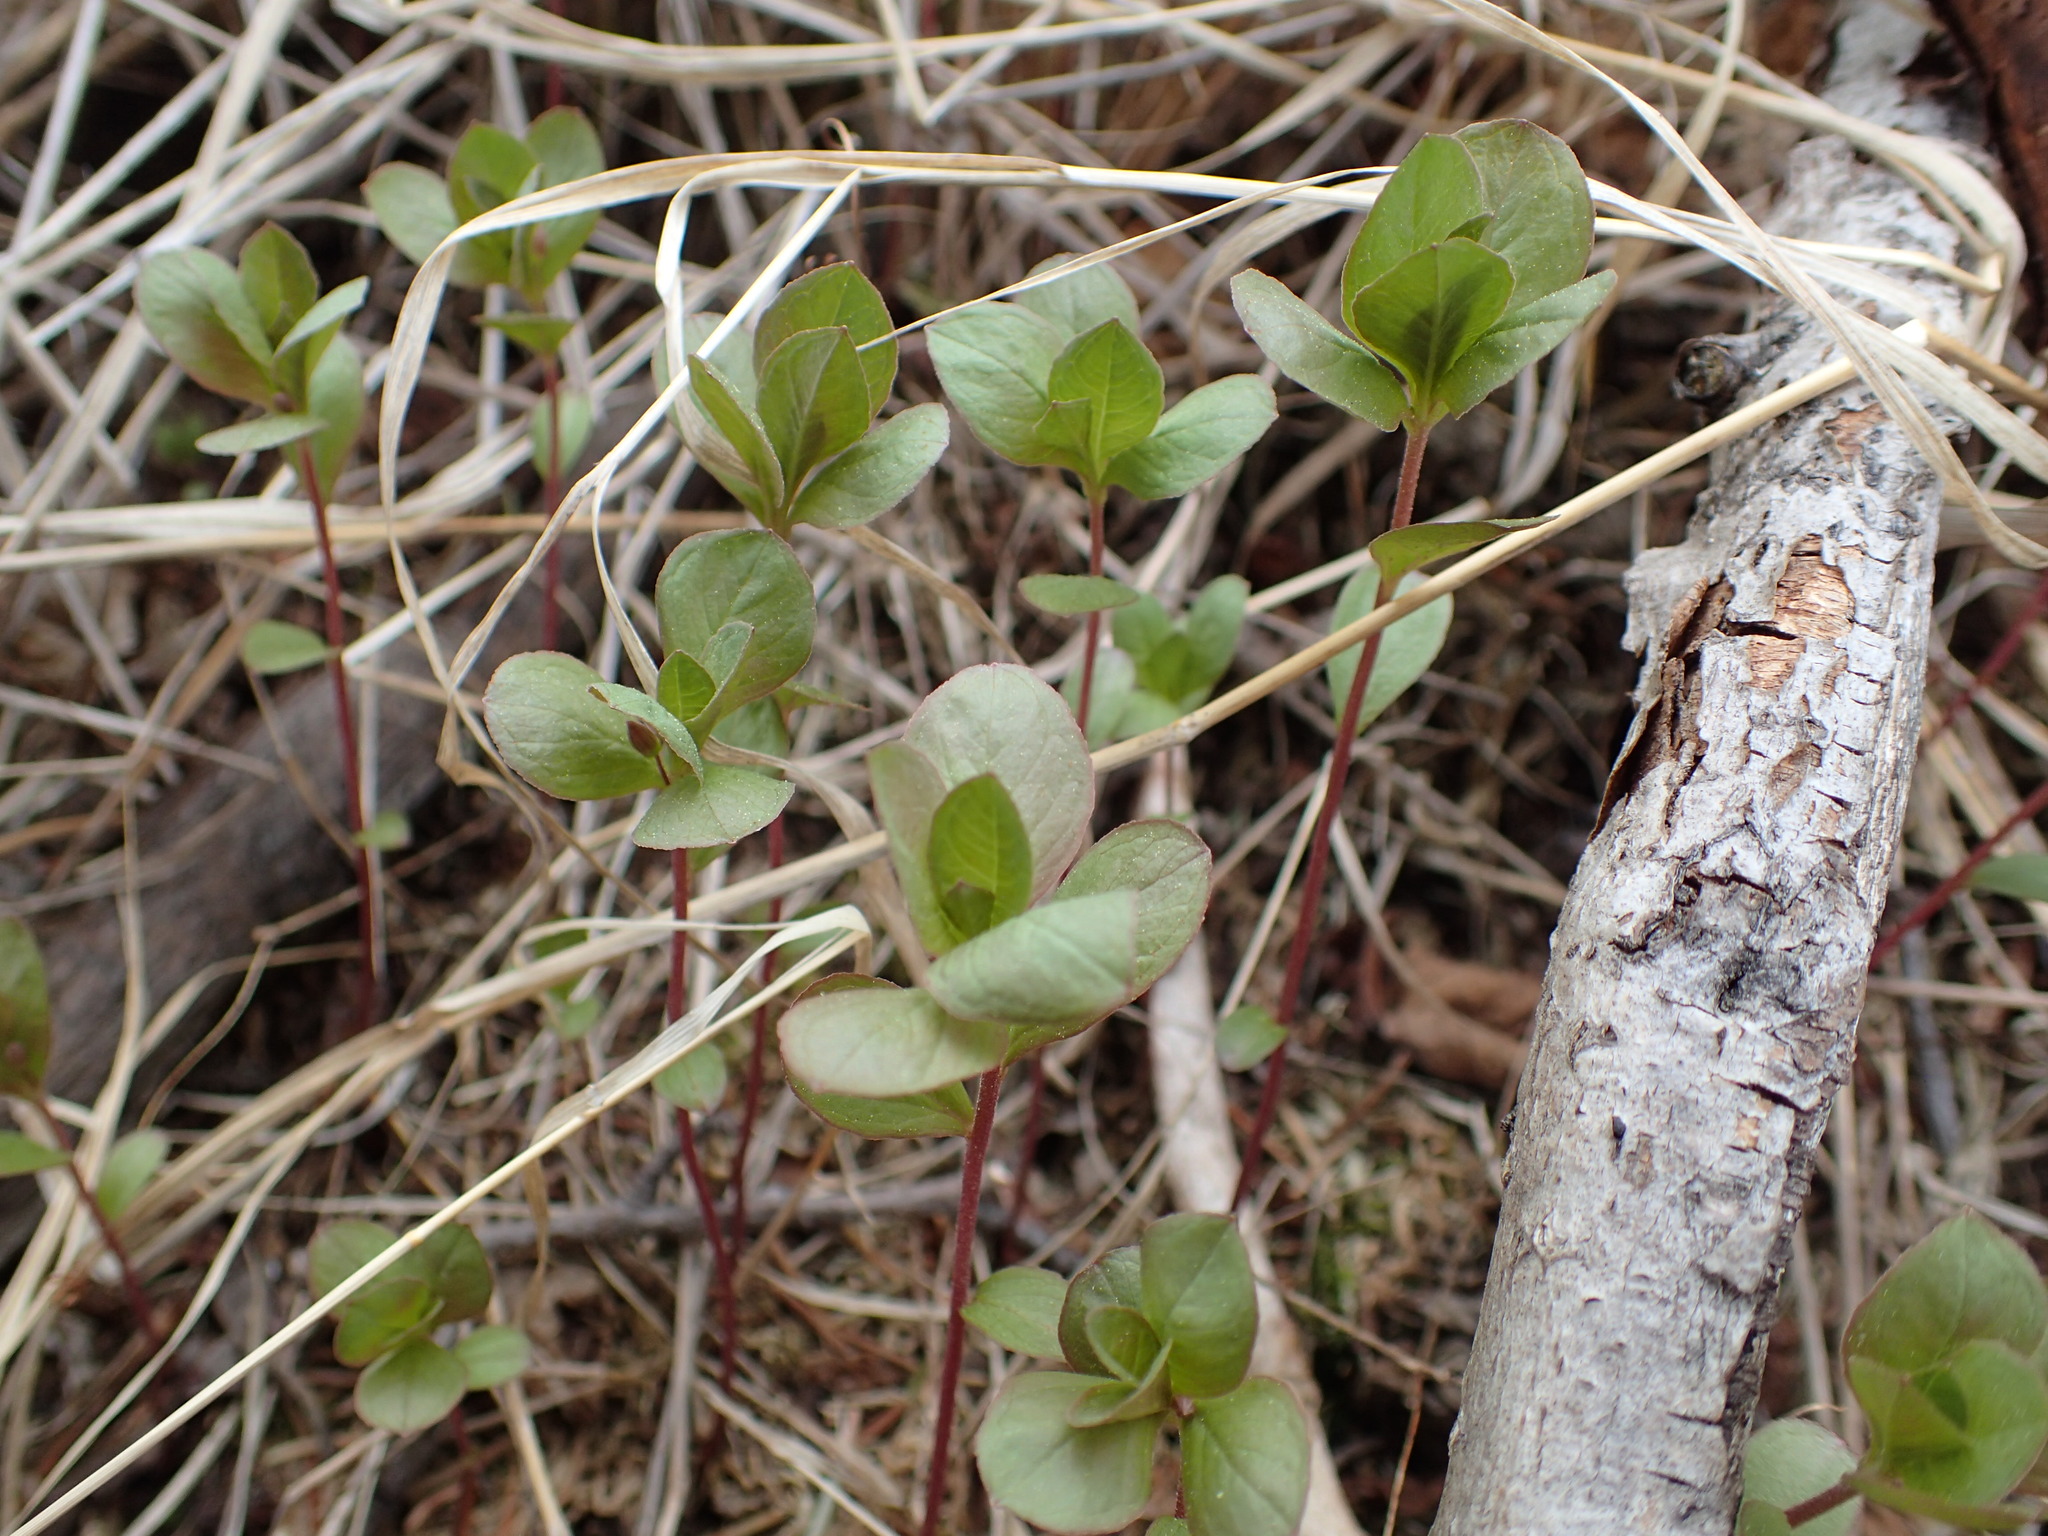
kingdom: Plantae
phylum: Tracheophyta
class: Magnoliopsida
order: Ericales
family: Primulaceae
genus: Lysimachia
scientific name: Lysimachia europaea
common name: Arctic starflower
